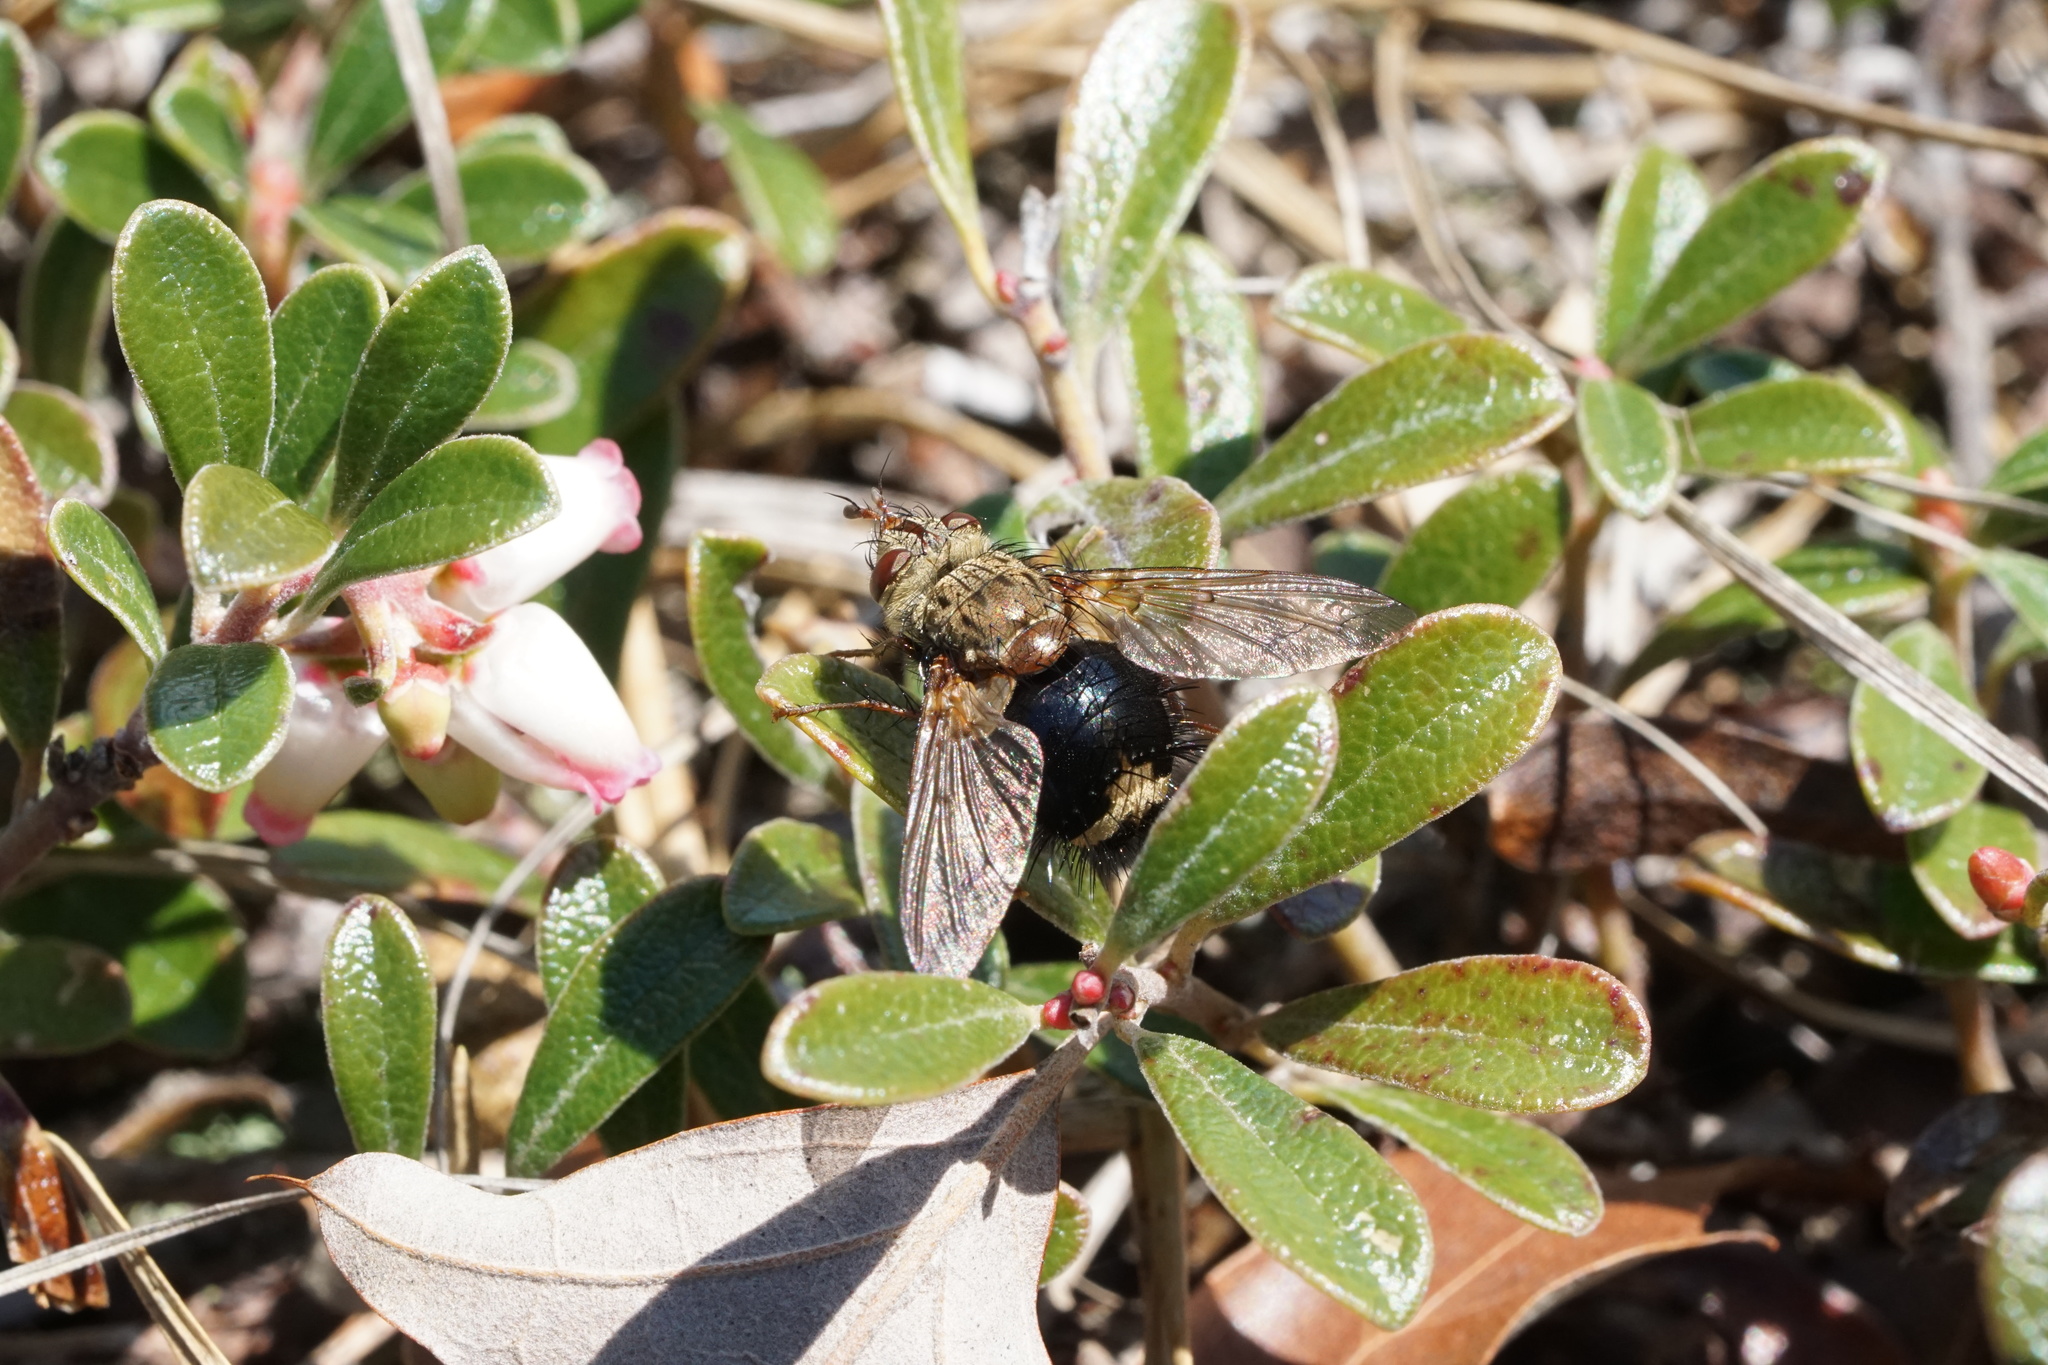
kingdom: Animalia
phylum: Arthropoda
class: Insecta
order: Diptera
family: Tachinidae
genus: Epalpus
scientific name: Epalpus signifer
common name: Early tachinid fly
